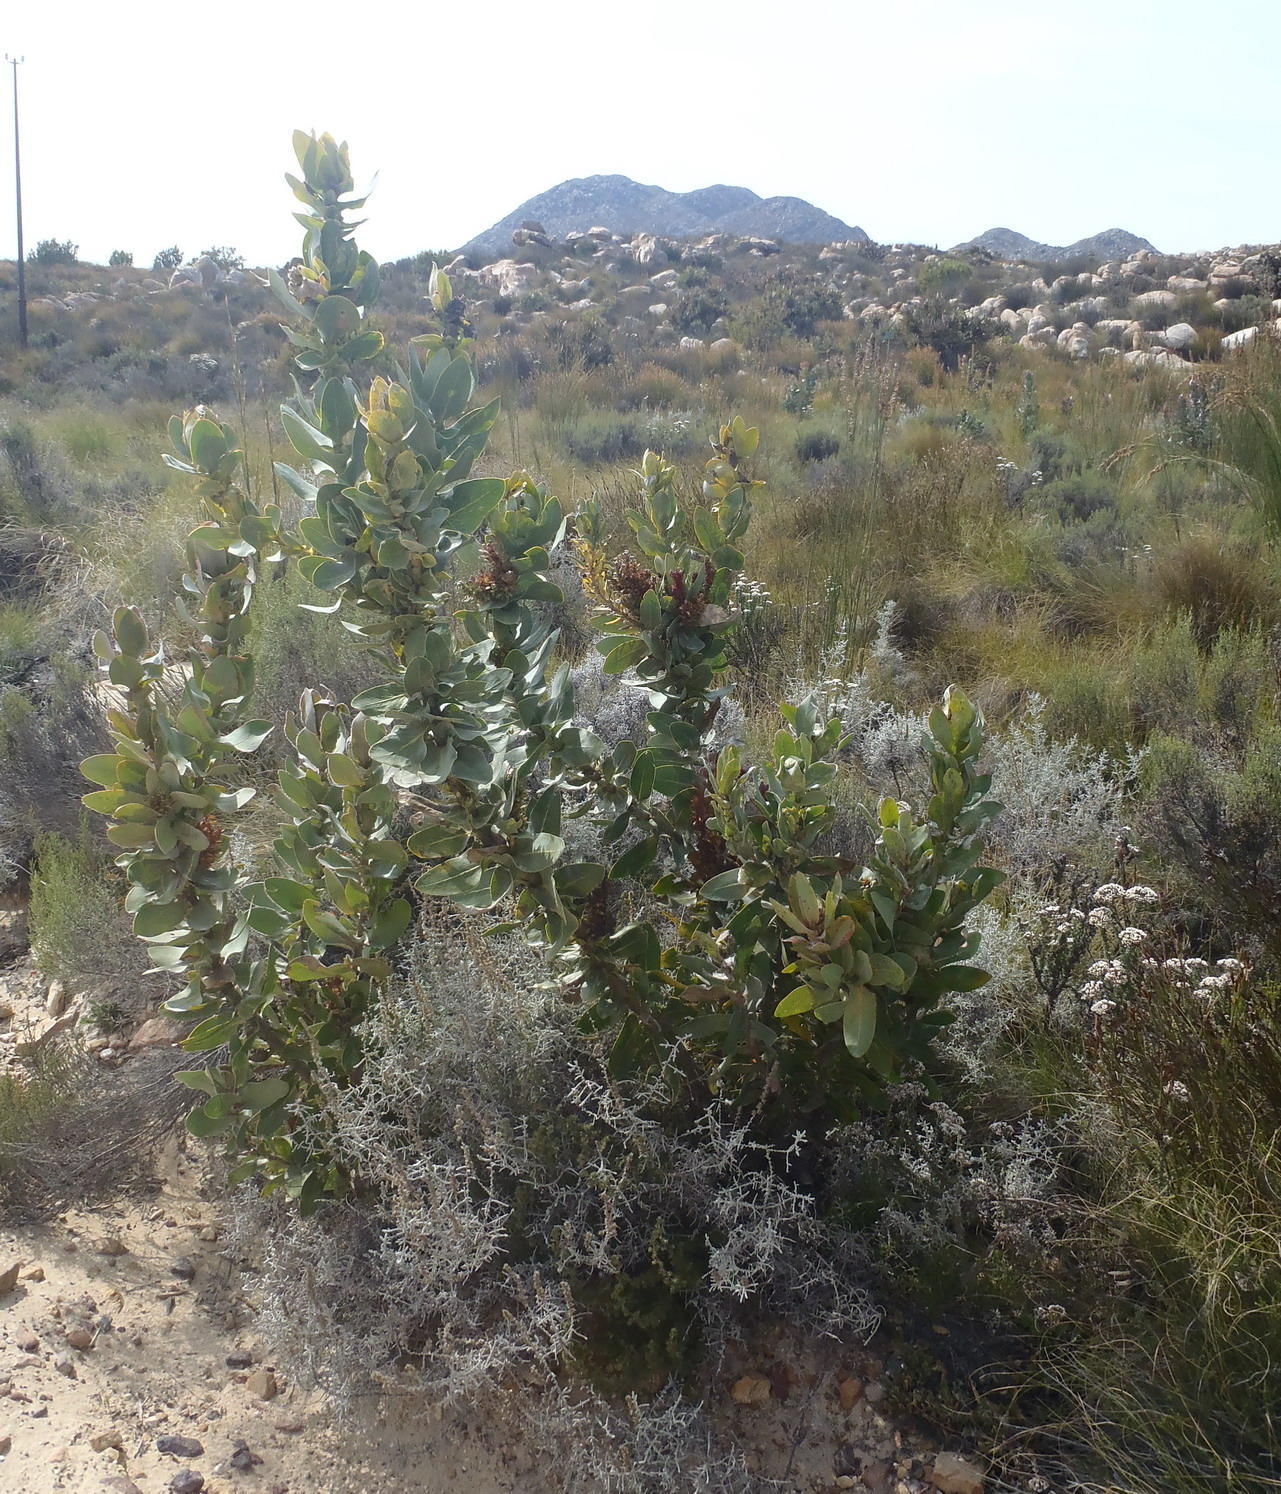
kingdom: Plantae
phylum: Tracheophyta
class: Magnoliopsida
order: Proteales
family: Proteaceae
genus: Protea
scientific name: Protea eximia
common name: Broad-leaved sugarbush
